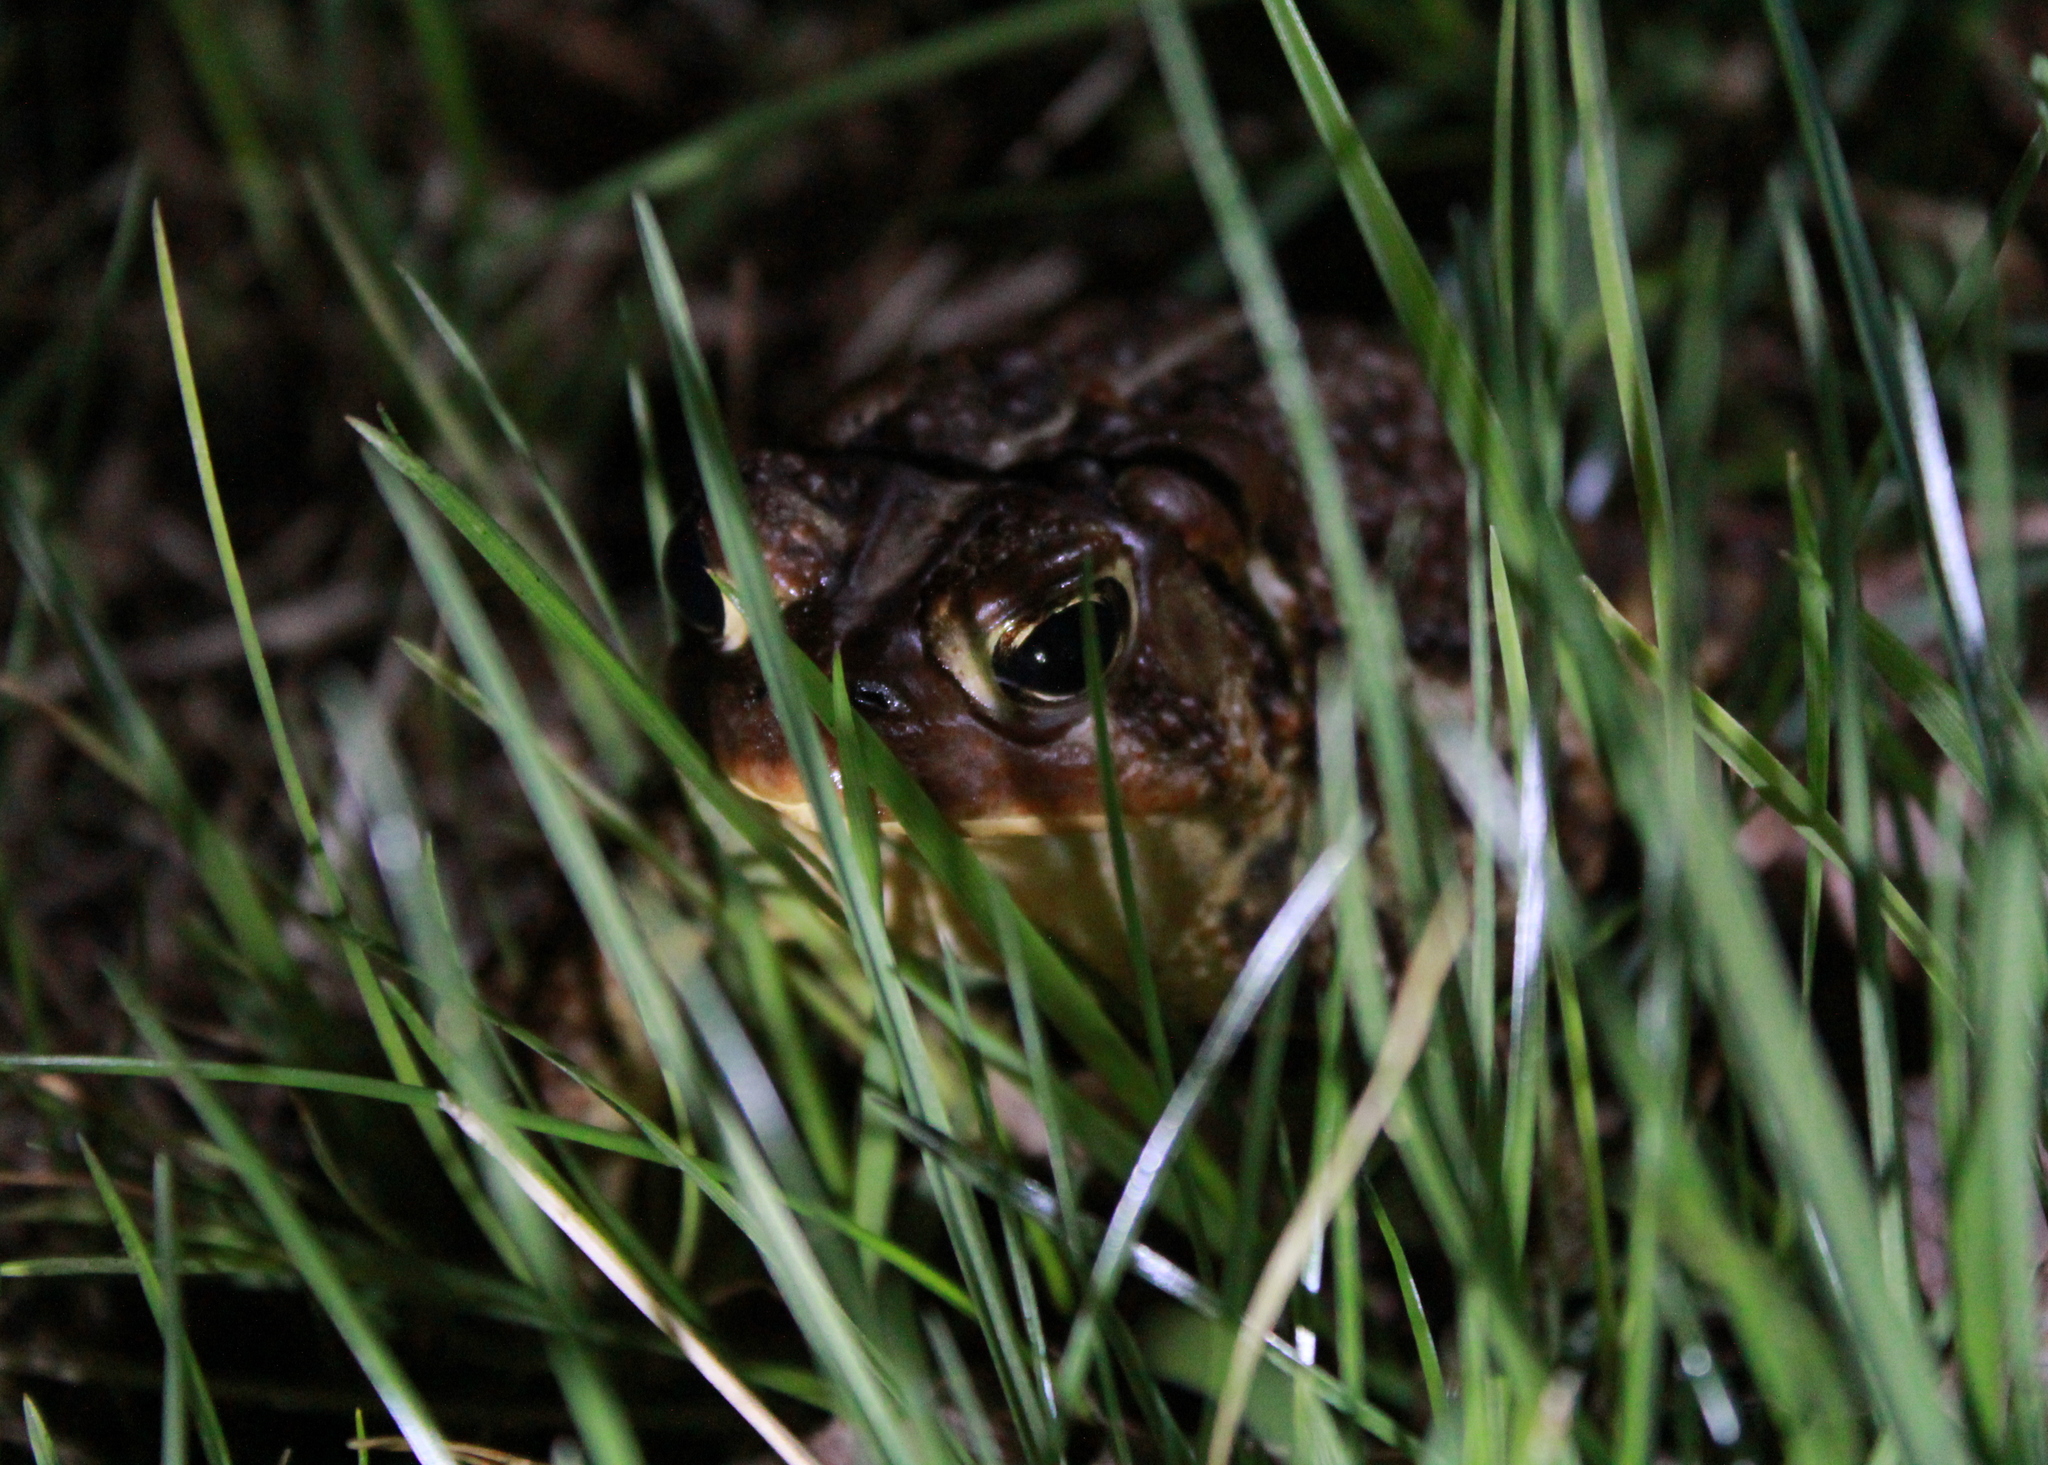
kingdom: Animalia
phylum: Chordata
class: Amphibia
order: Anura
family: Bufonidae
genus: Anaxyrus
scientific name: Anaxyrus americanus
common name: American toad
